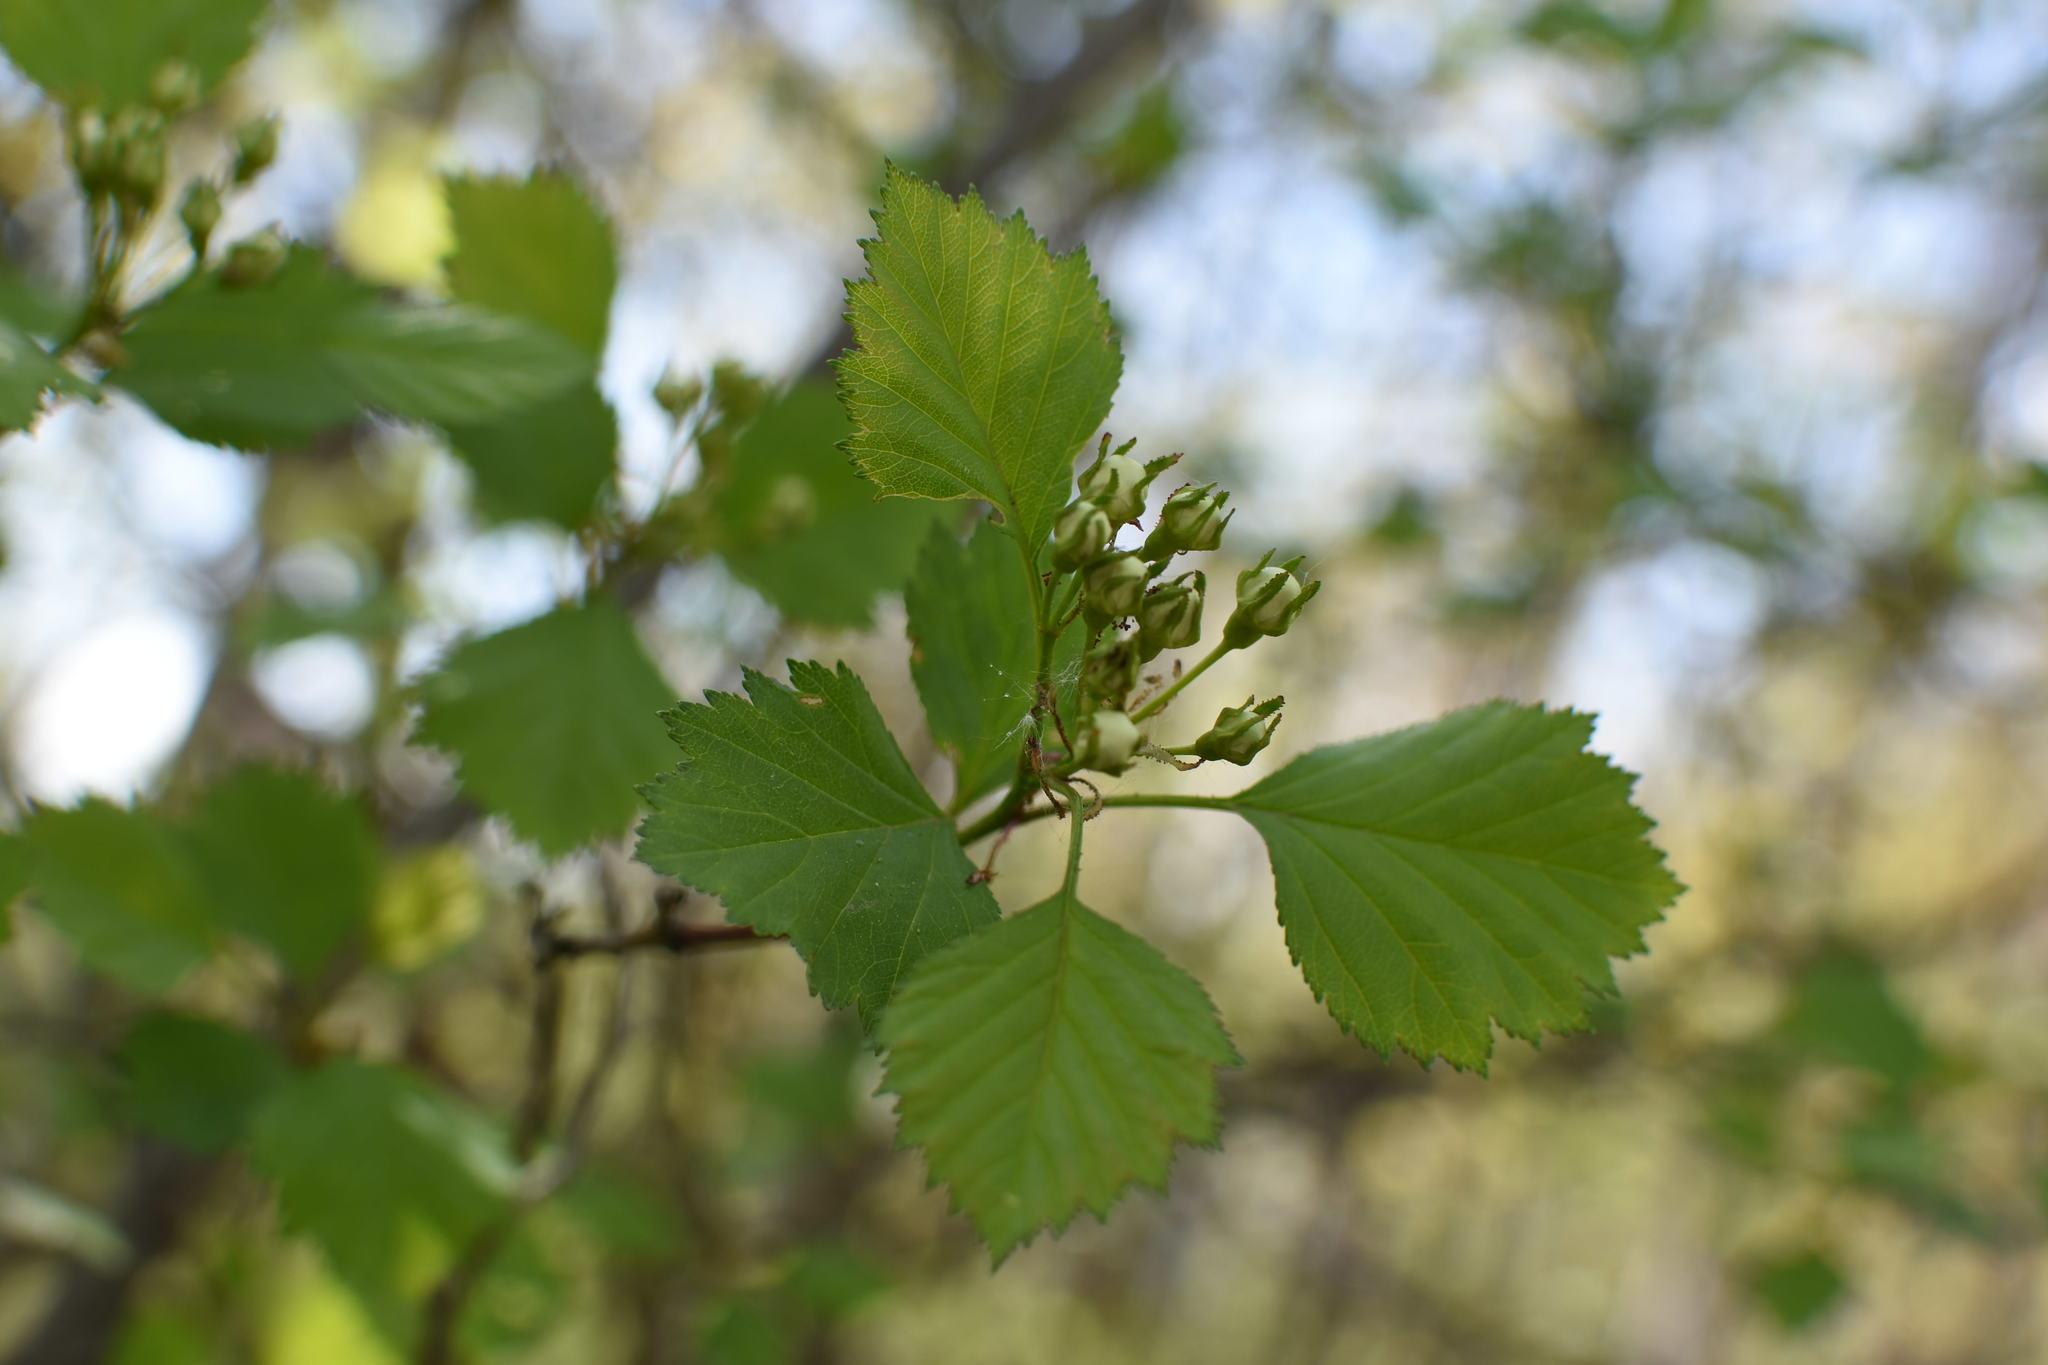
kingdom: Plantae
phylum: Tracheophyta
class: Magnoliopsida
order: Rosales
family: Rosaceae
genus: Crataegus
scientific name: Crataegus chrysocarpa
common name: Fire-berry hawthorn
